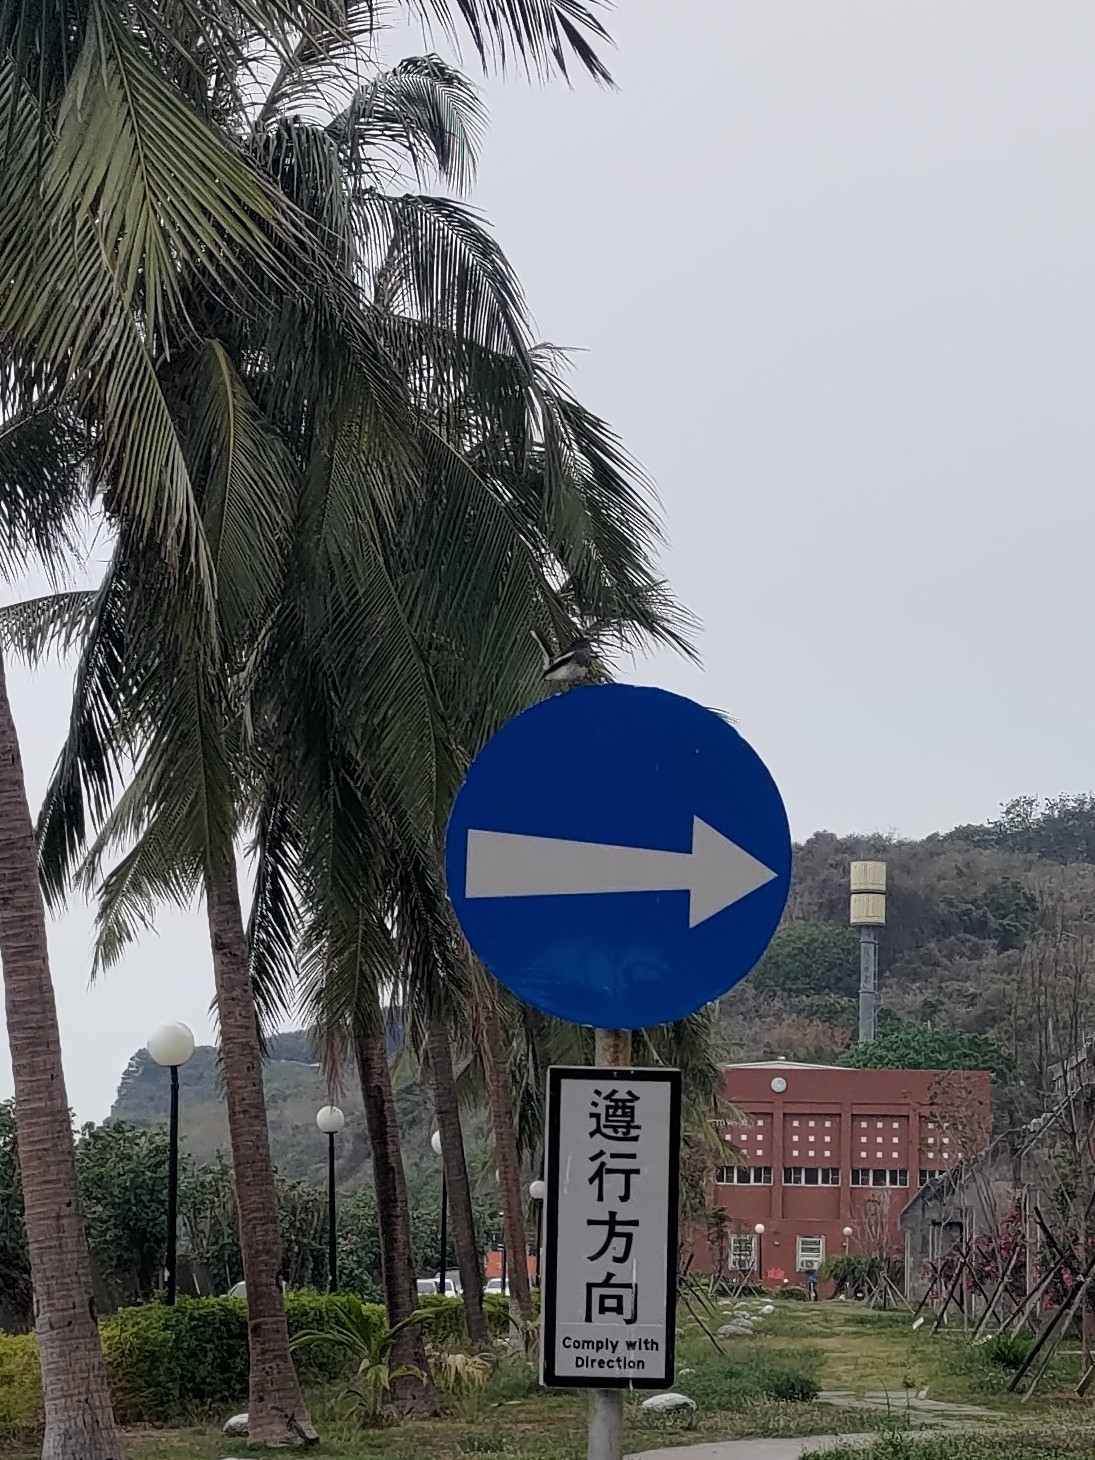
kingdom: Animalia
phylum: Chordata
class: Aves
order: Passeriformes
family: Muscicapidae
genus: Copsychus
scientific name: Copsychus saularis
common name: Oriental magpie-robin
